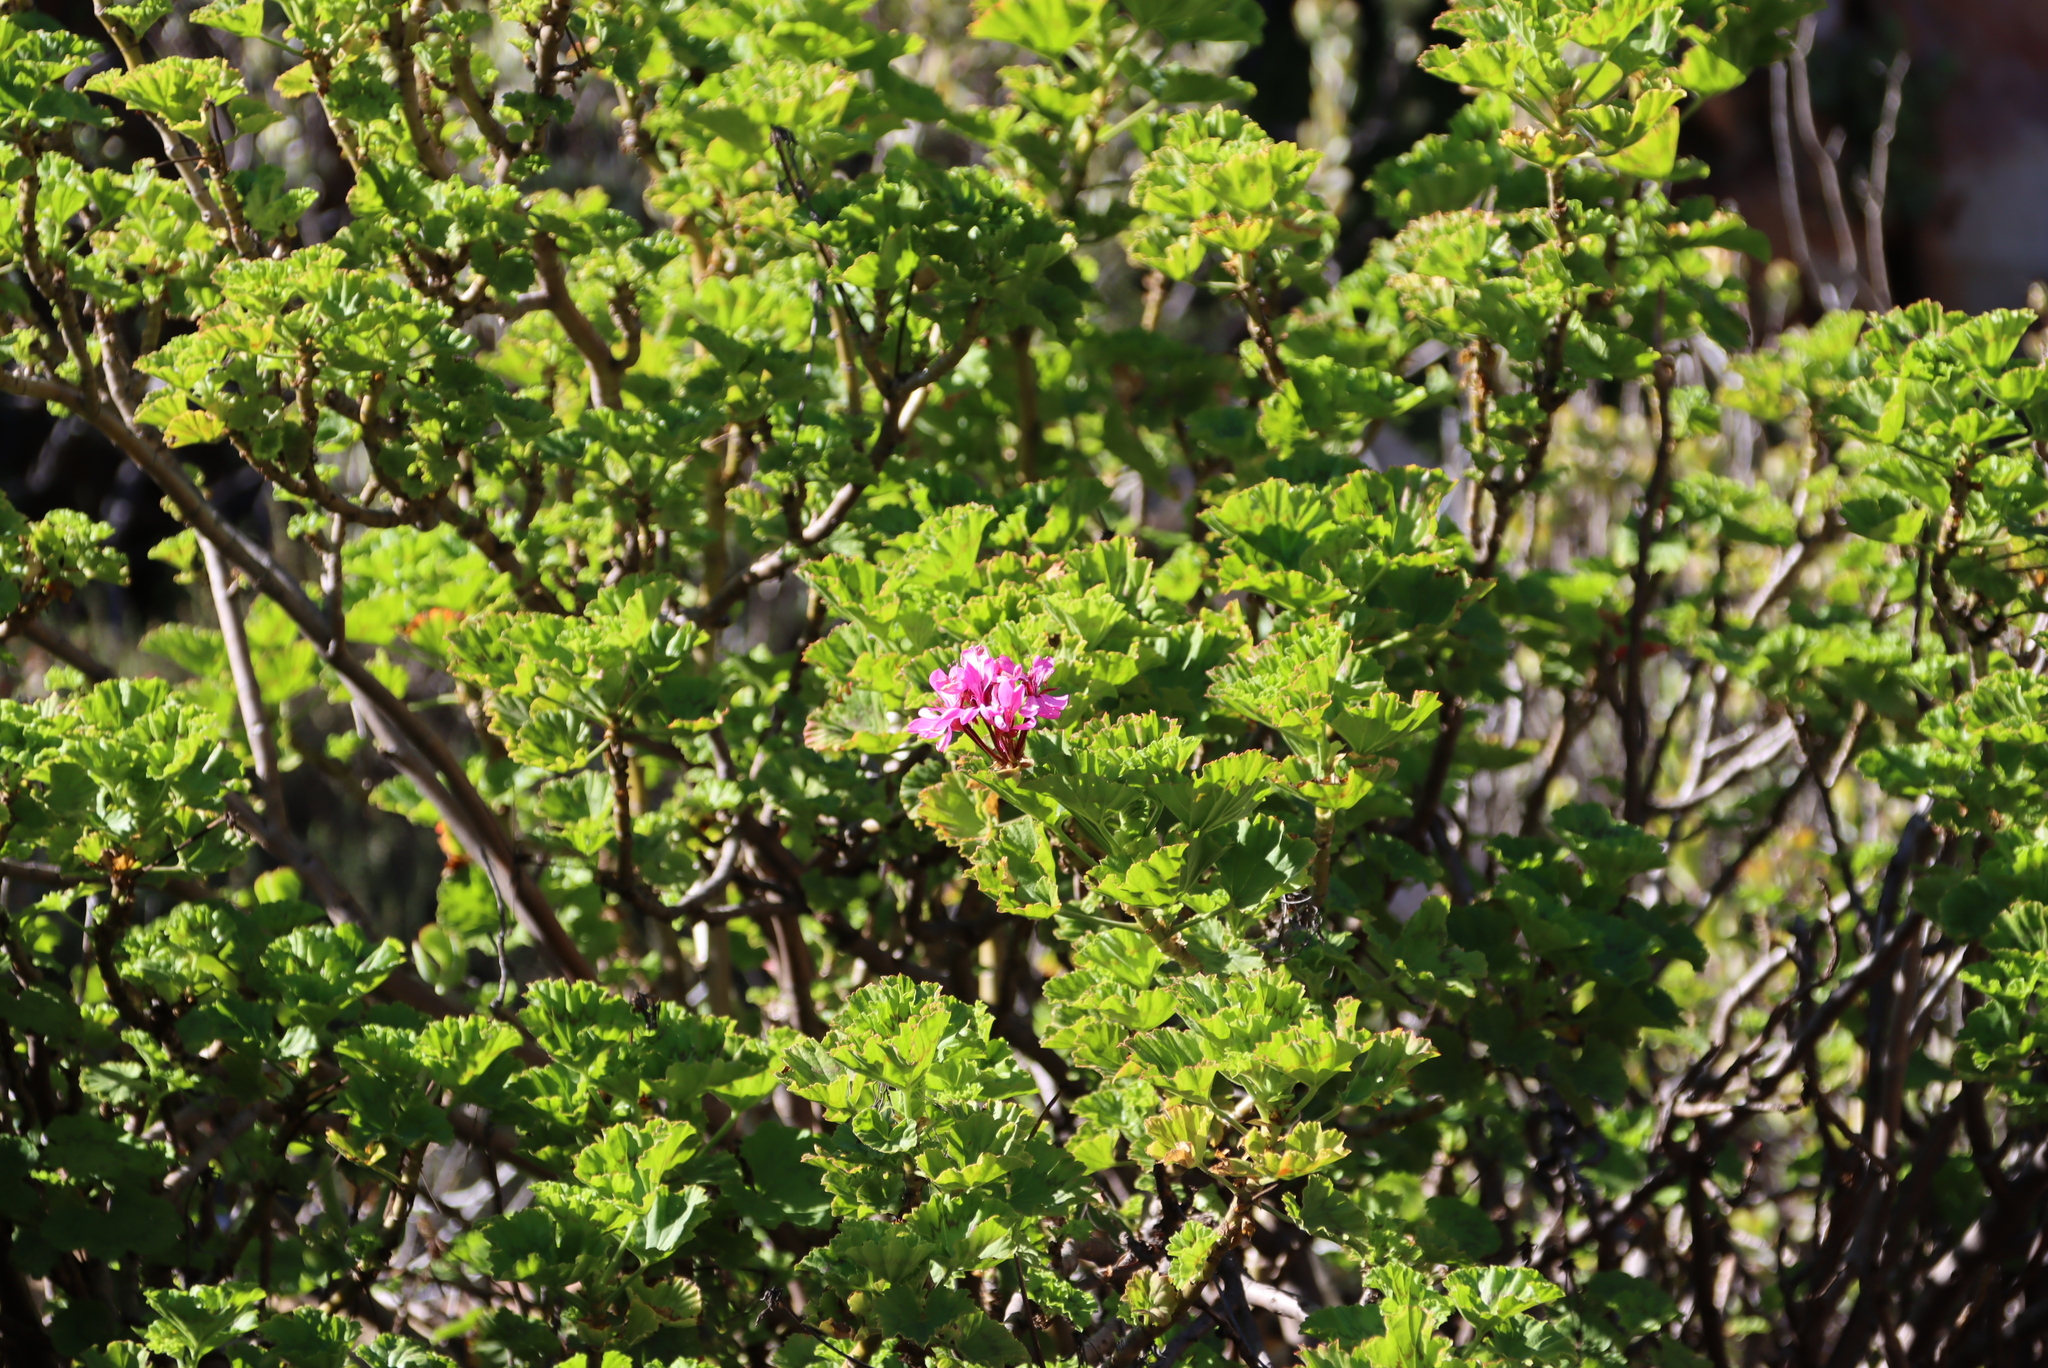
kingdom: Plantae
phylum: Tracheophyta
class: Magnoliopsida
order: Geraniales
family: Geraniaceae
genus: Pelargonium
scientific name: Pelargonium zonale
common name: Horseshoe geranium
